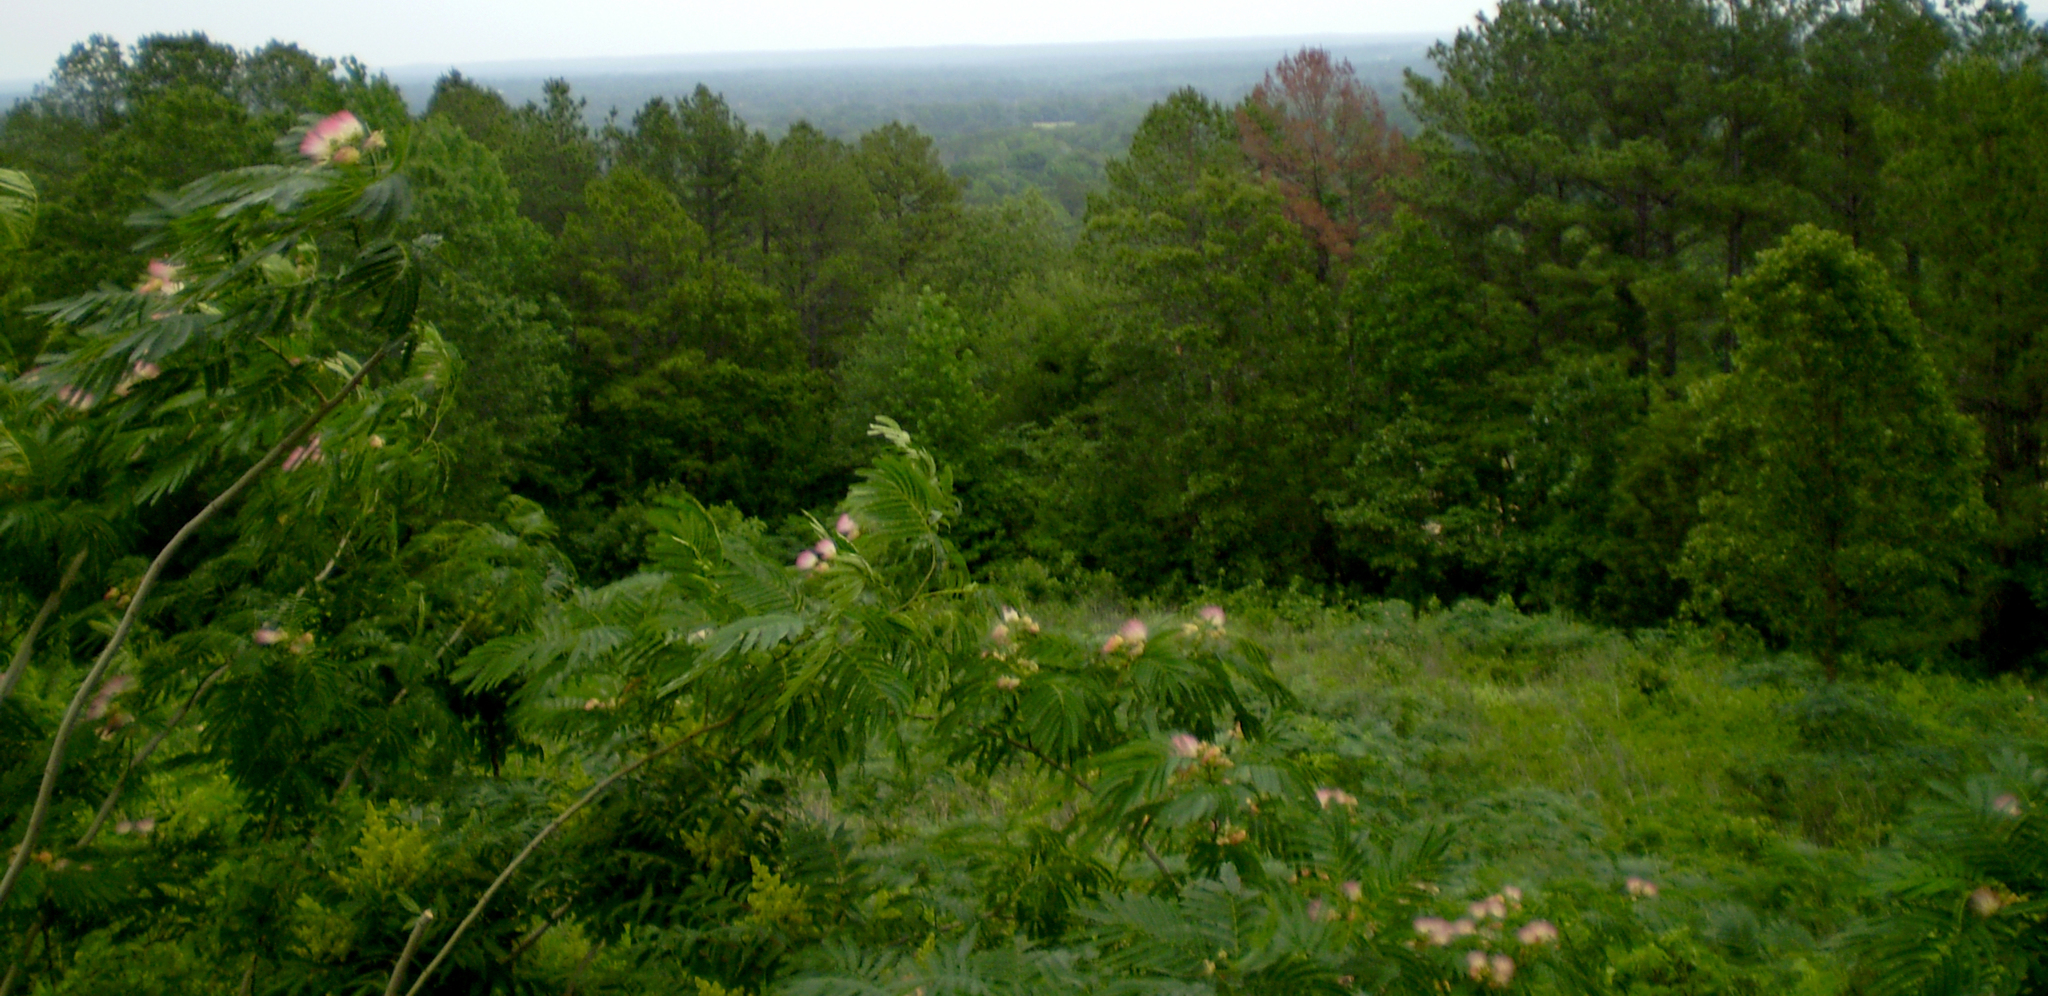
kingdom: Plantae
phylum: Tracheophyta
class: Magnoliopsida
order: Fabales
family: Fabaceae
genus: Albizia
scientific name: Albizia julibrissin
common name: Silktree
